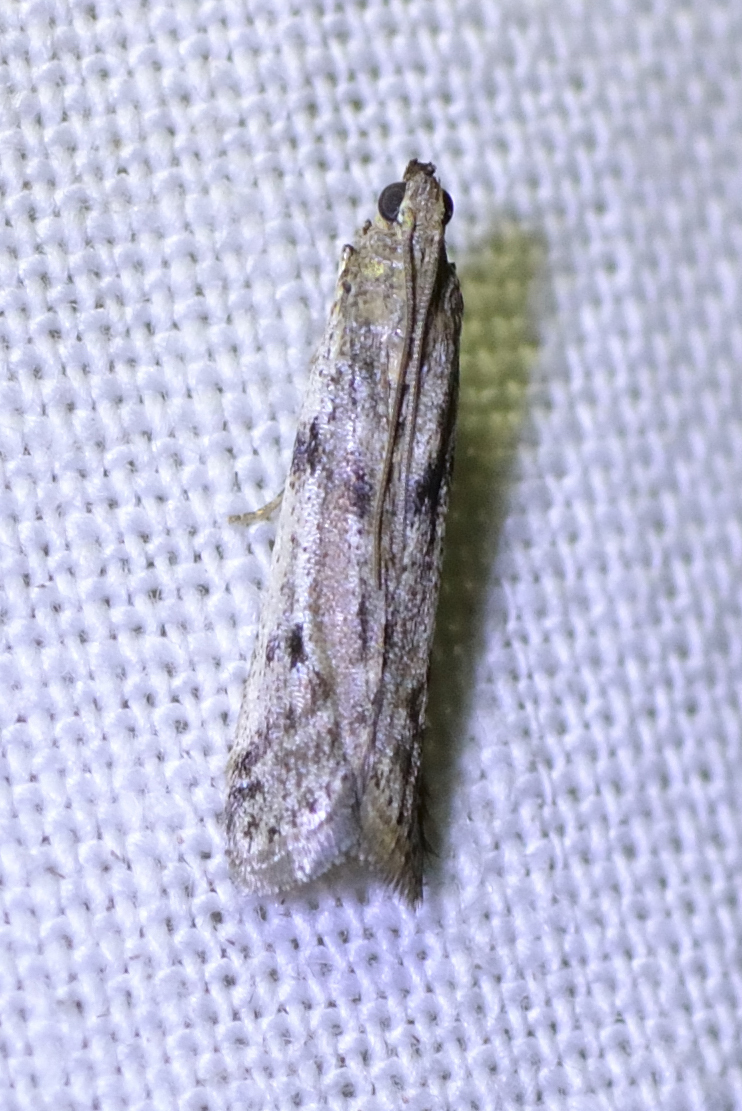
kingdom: Animalia
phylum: Arthropoda
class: Insecta
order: Lepidoptera
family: Pyralidae
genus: Phycitodes
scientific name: Phycitodes binaevella
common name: Ermine knot-horn
